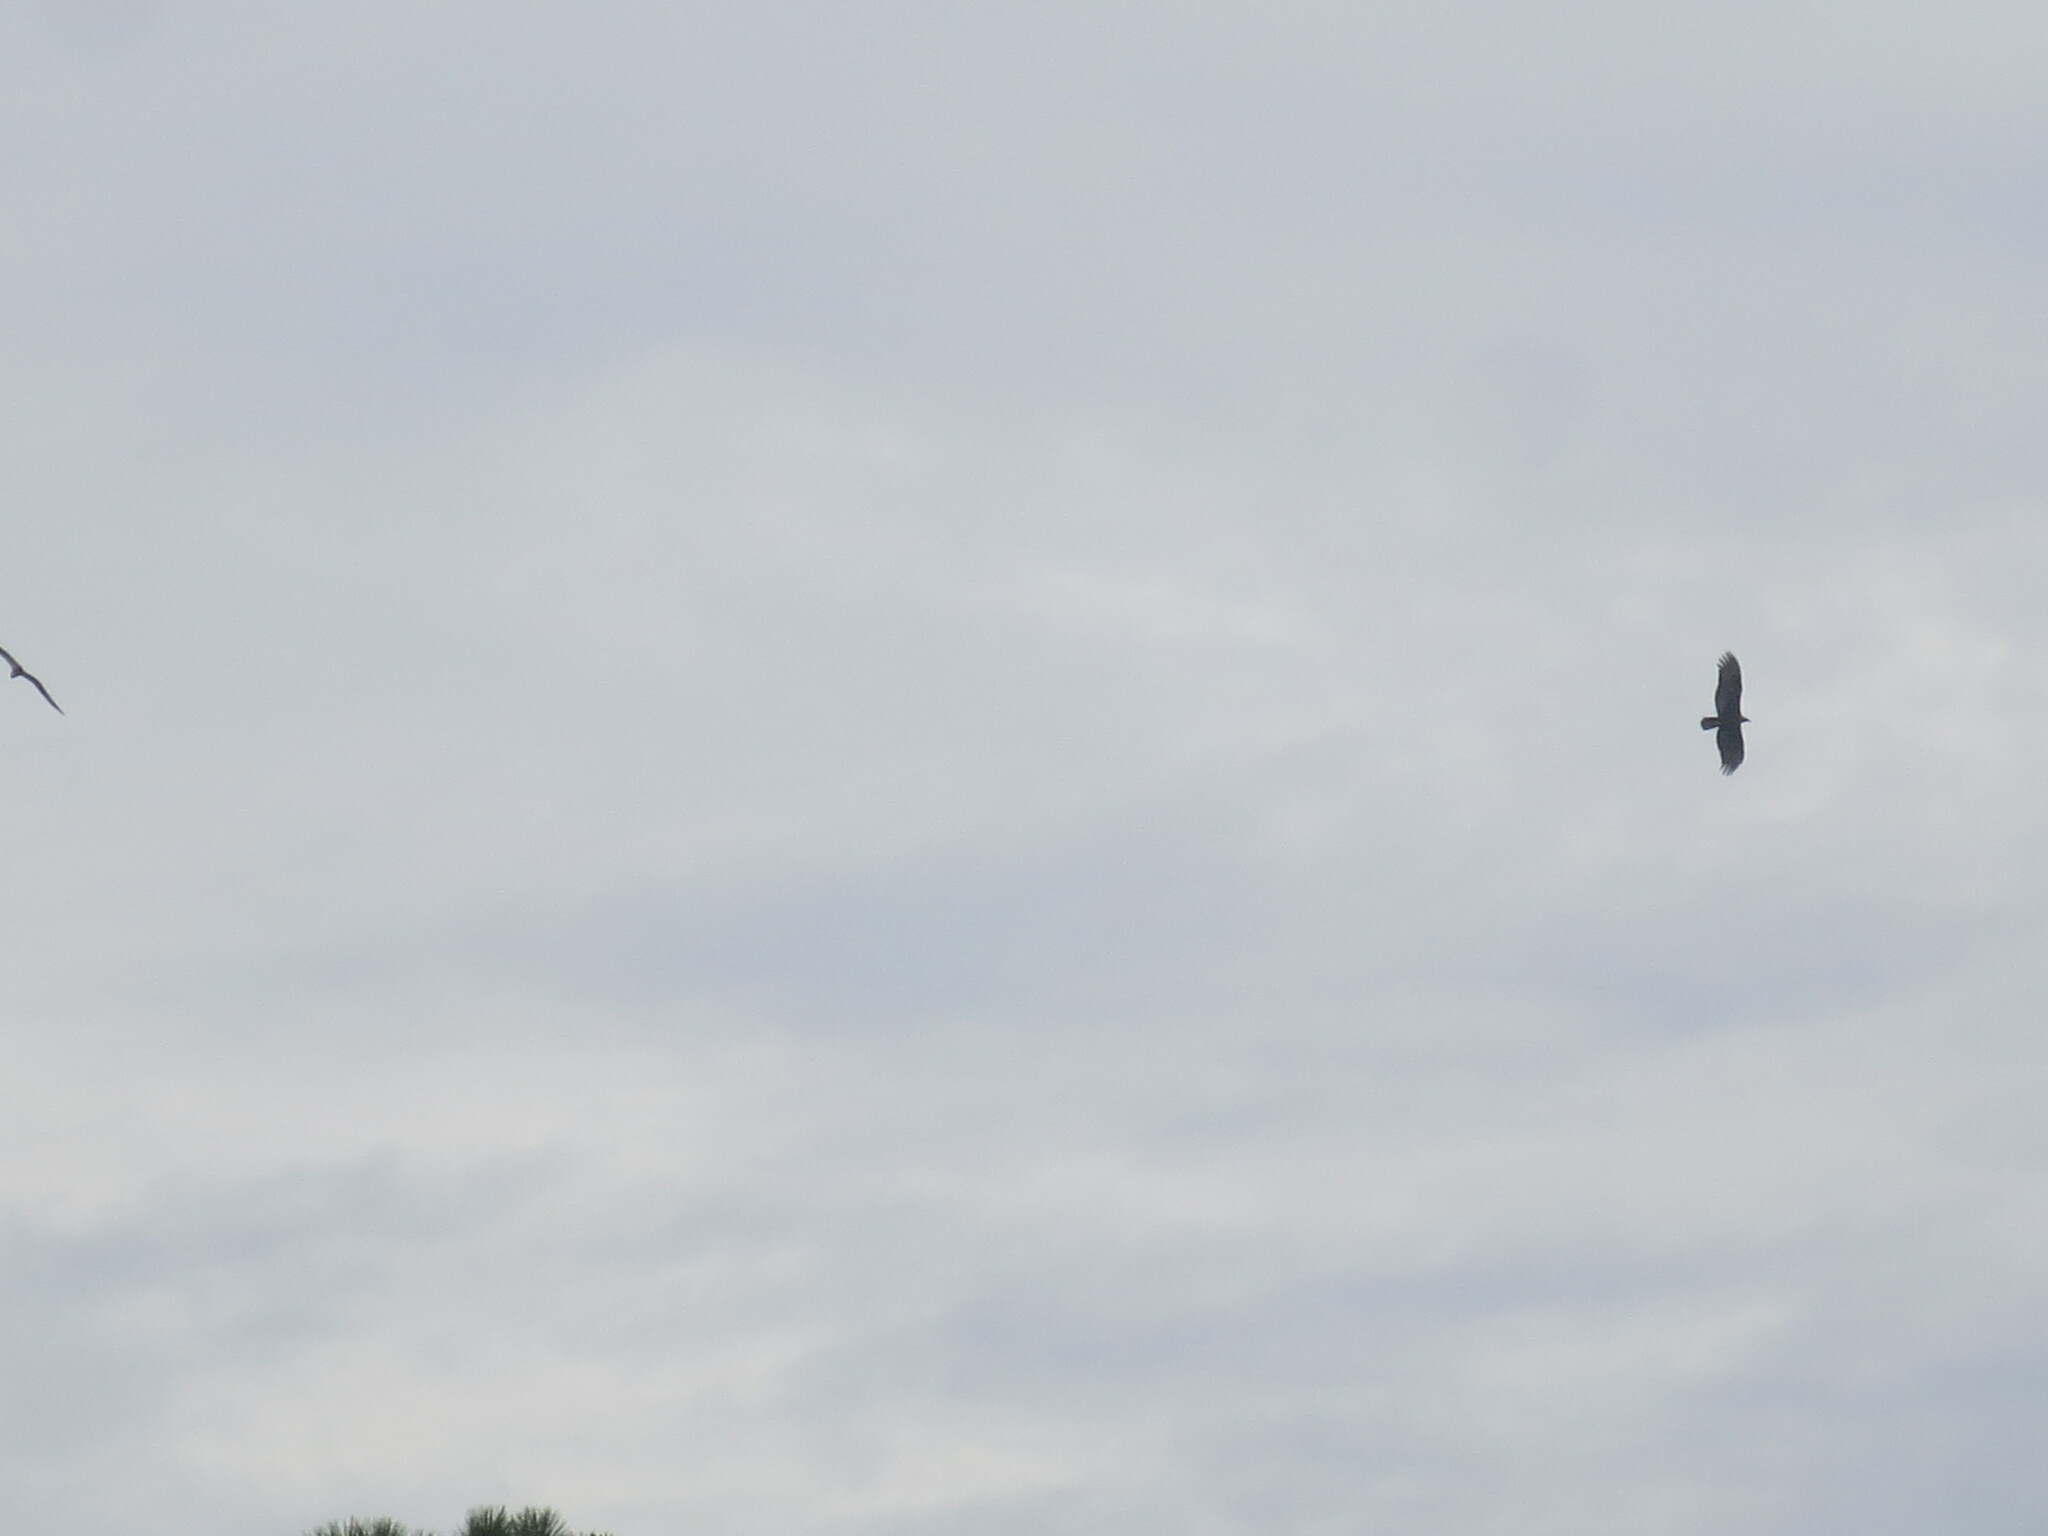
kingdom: Animalia
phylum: Chordata
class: Aves
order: Accipitriformes
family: Cathartidae
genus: Cathartes
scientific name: Cathartes aura
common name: Turkey vulture
